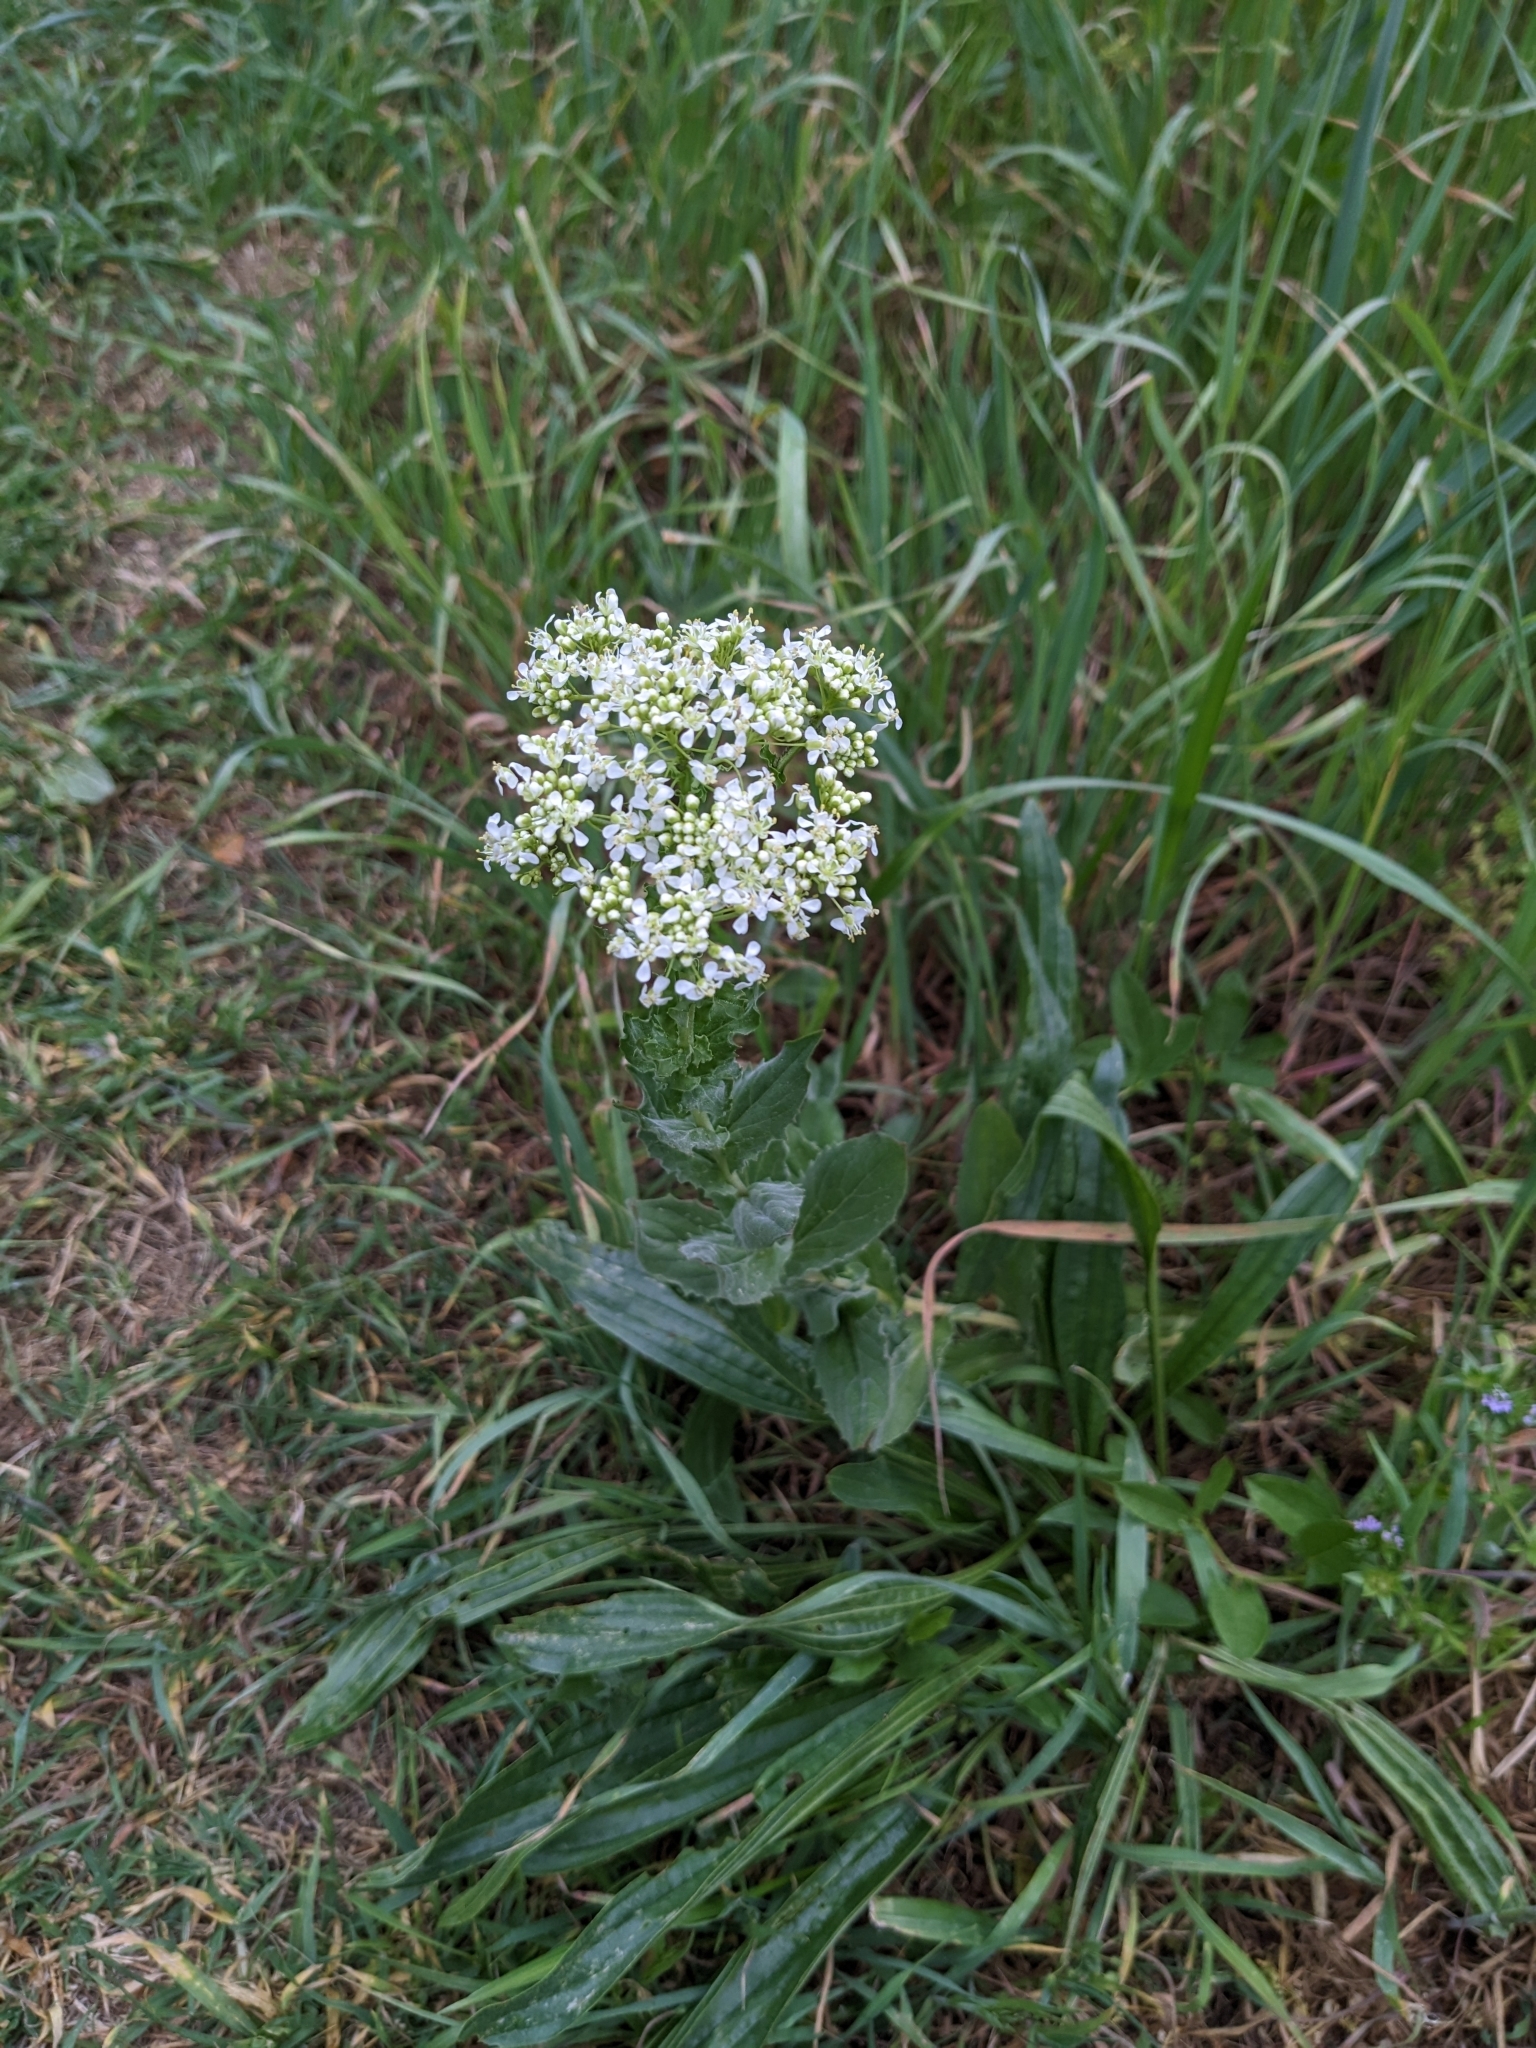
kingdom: Plantae
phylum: Tracheophyta
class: Magnoliopsida
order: Brassicales
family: Brassicaceae
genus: Lepidium
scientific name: Lepidium draba
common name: Hoary cress
